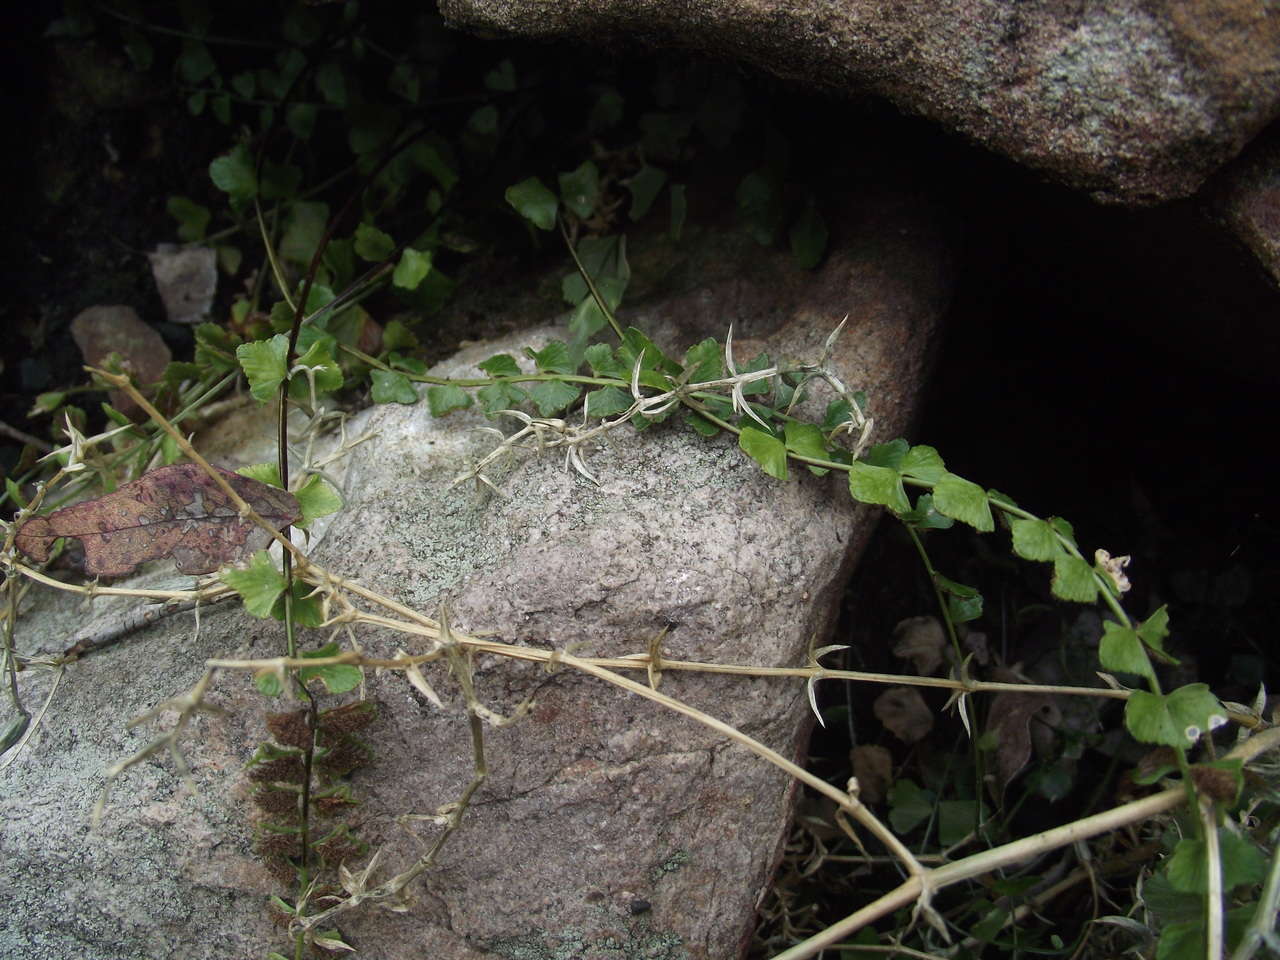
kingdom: Plantae
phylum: Tracheophyta
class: Polypodiopsida
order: Polypodiales
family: Aspleniaceae
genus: Asplenium
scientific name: Asplenium flabellifolium
